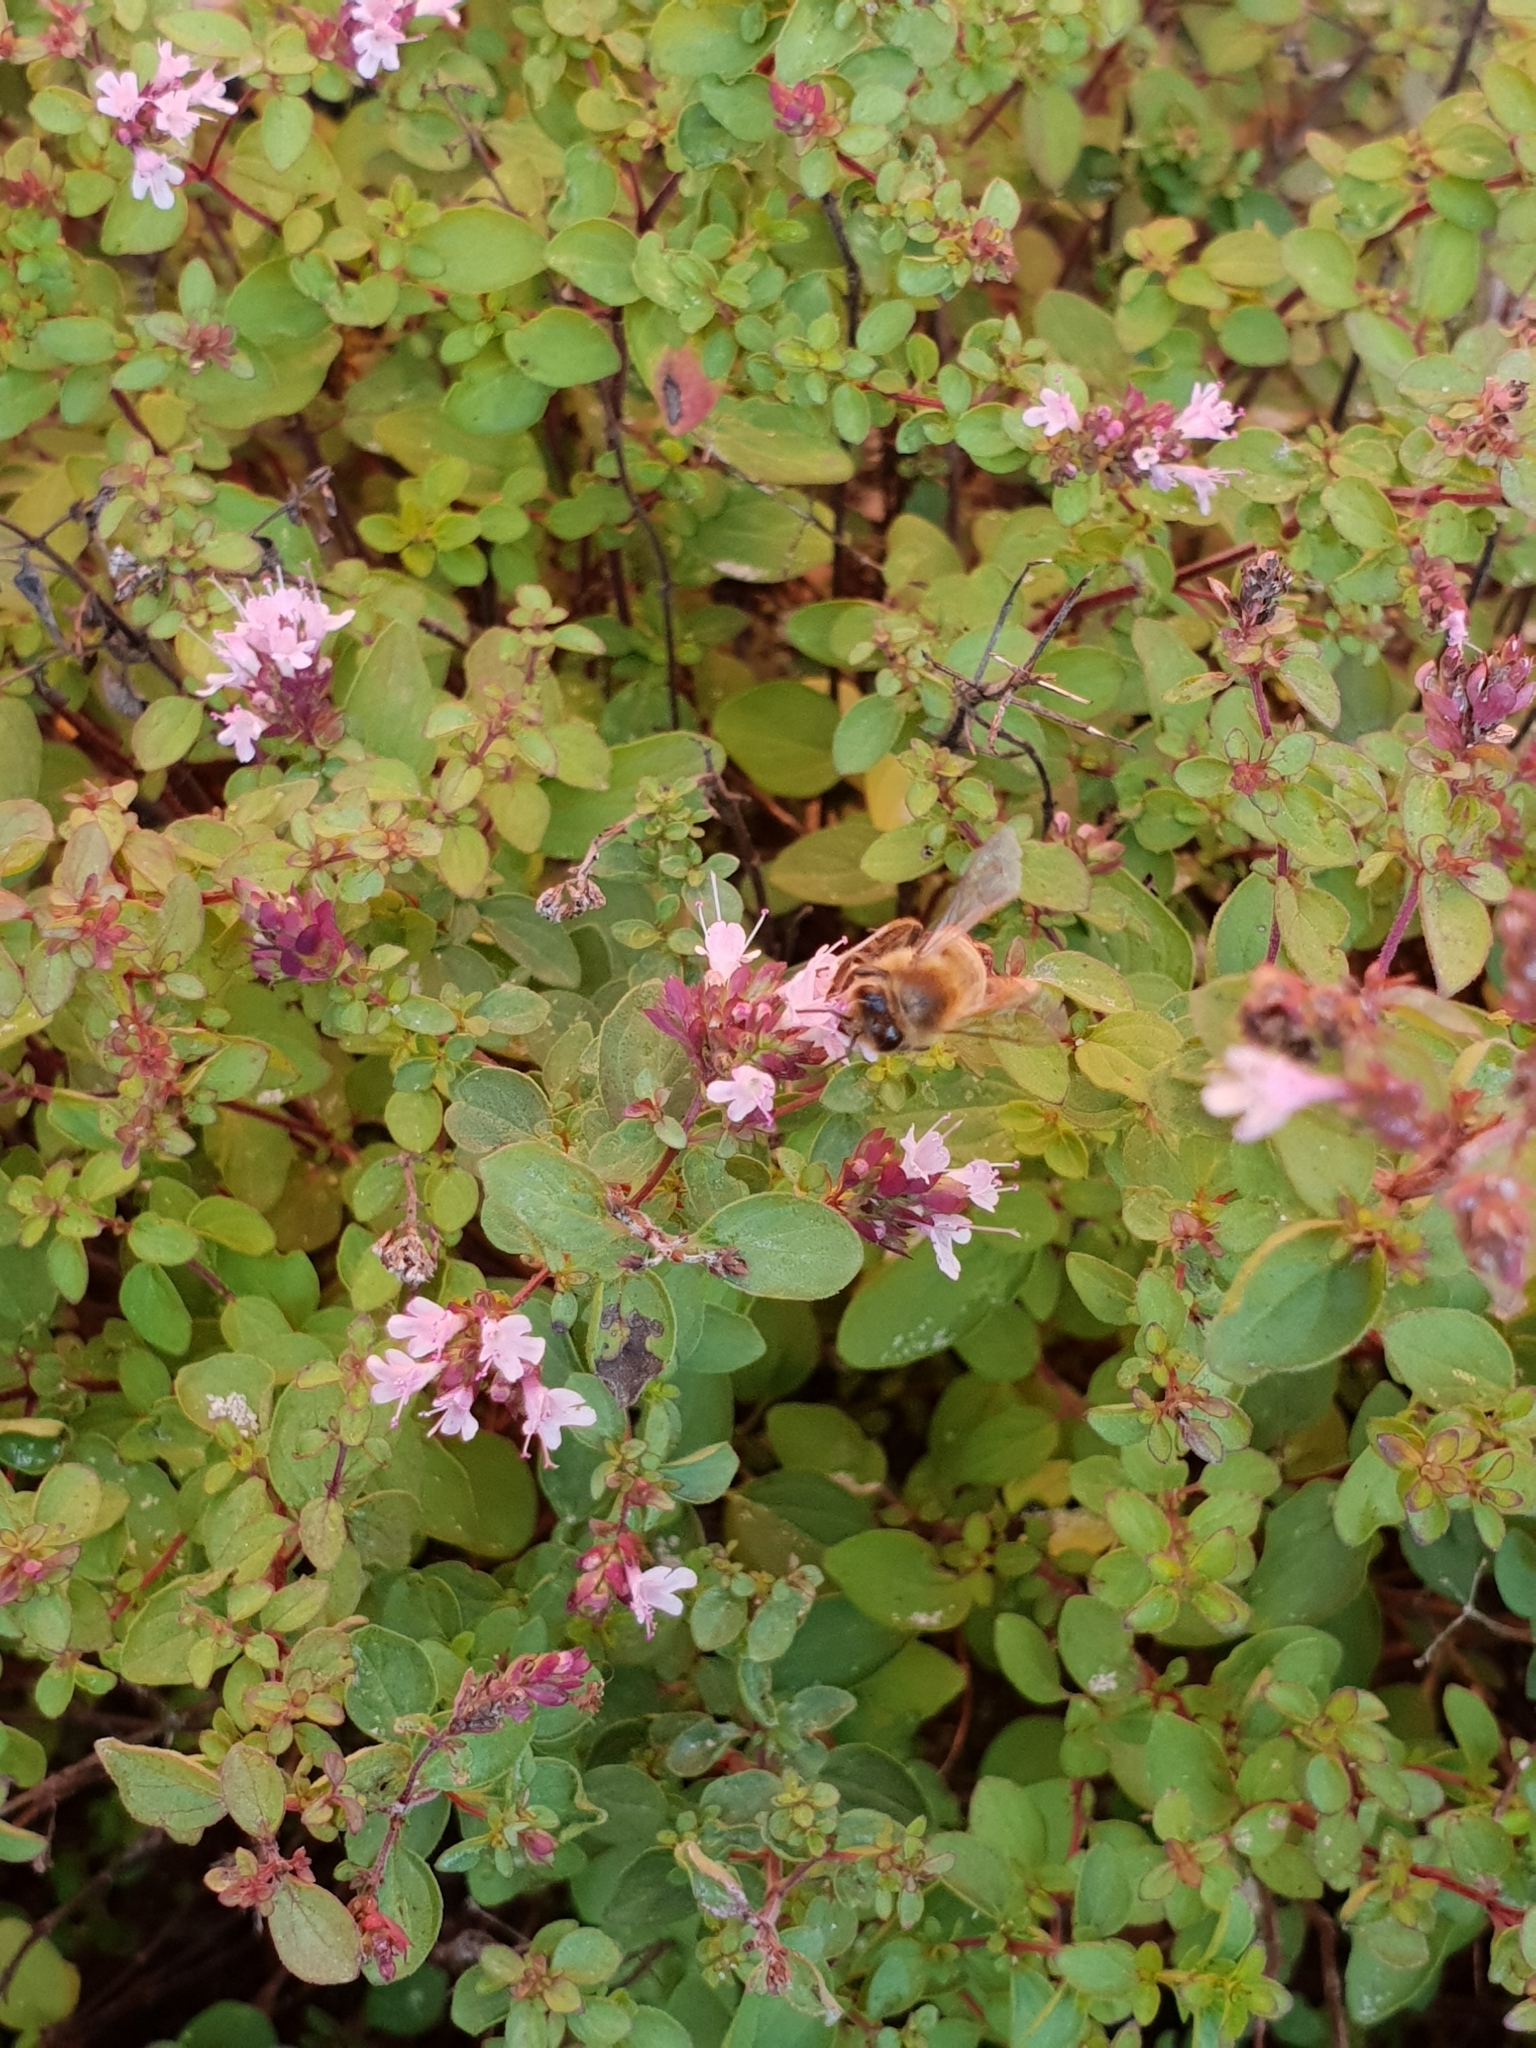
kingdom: Animalia
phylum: Arthropoda
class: Insecta
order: Hymenoptera
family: Apidae
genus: Apis
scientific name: Apis mellifera
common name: Honey bee
